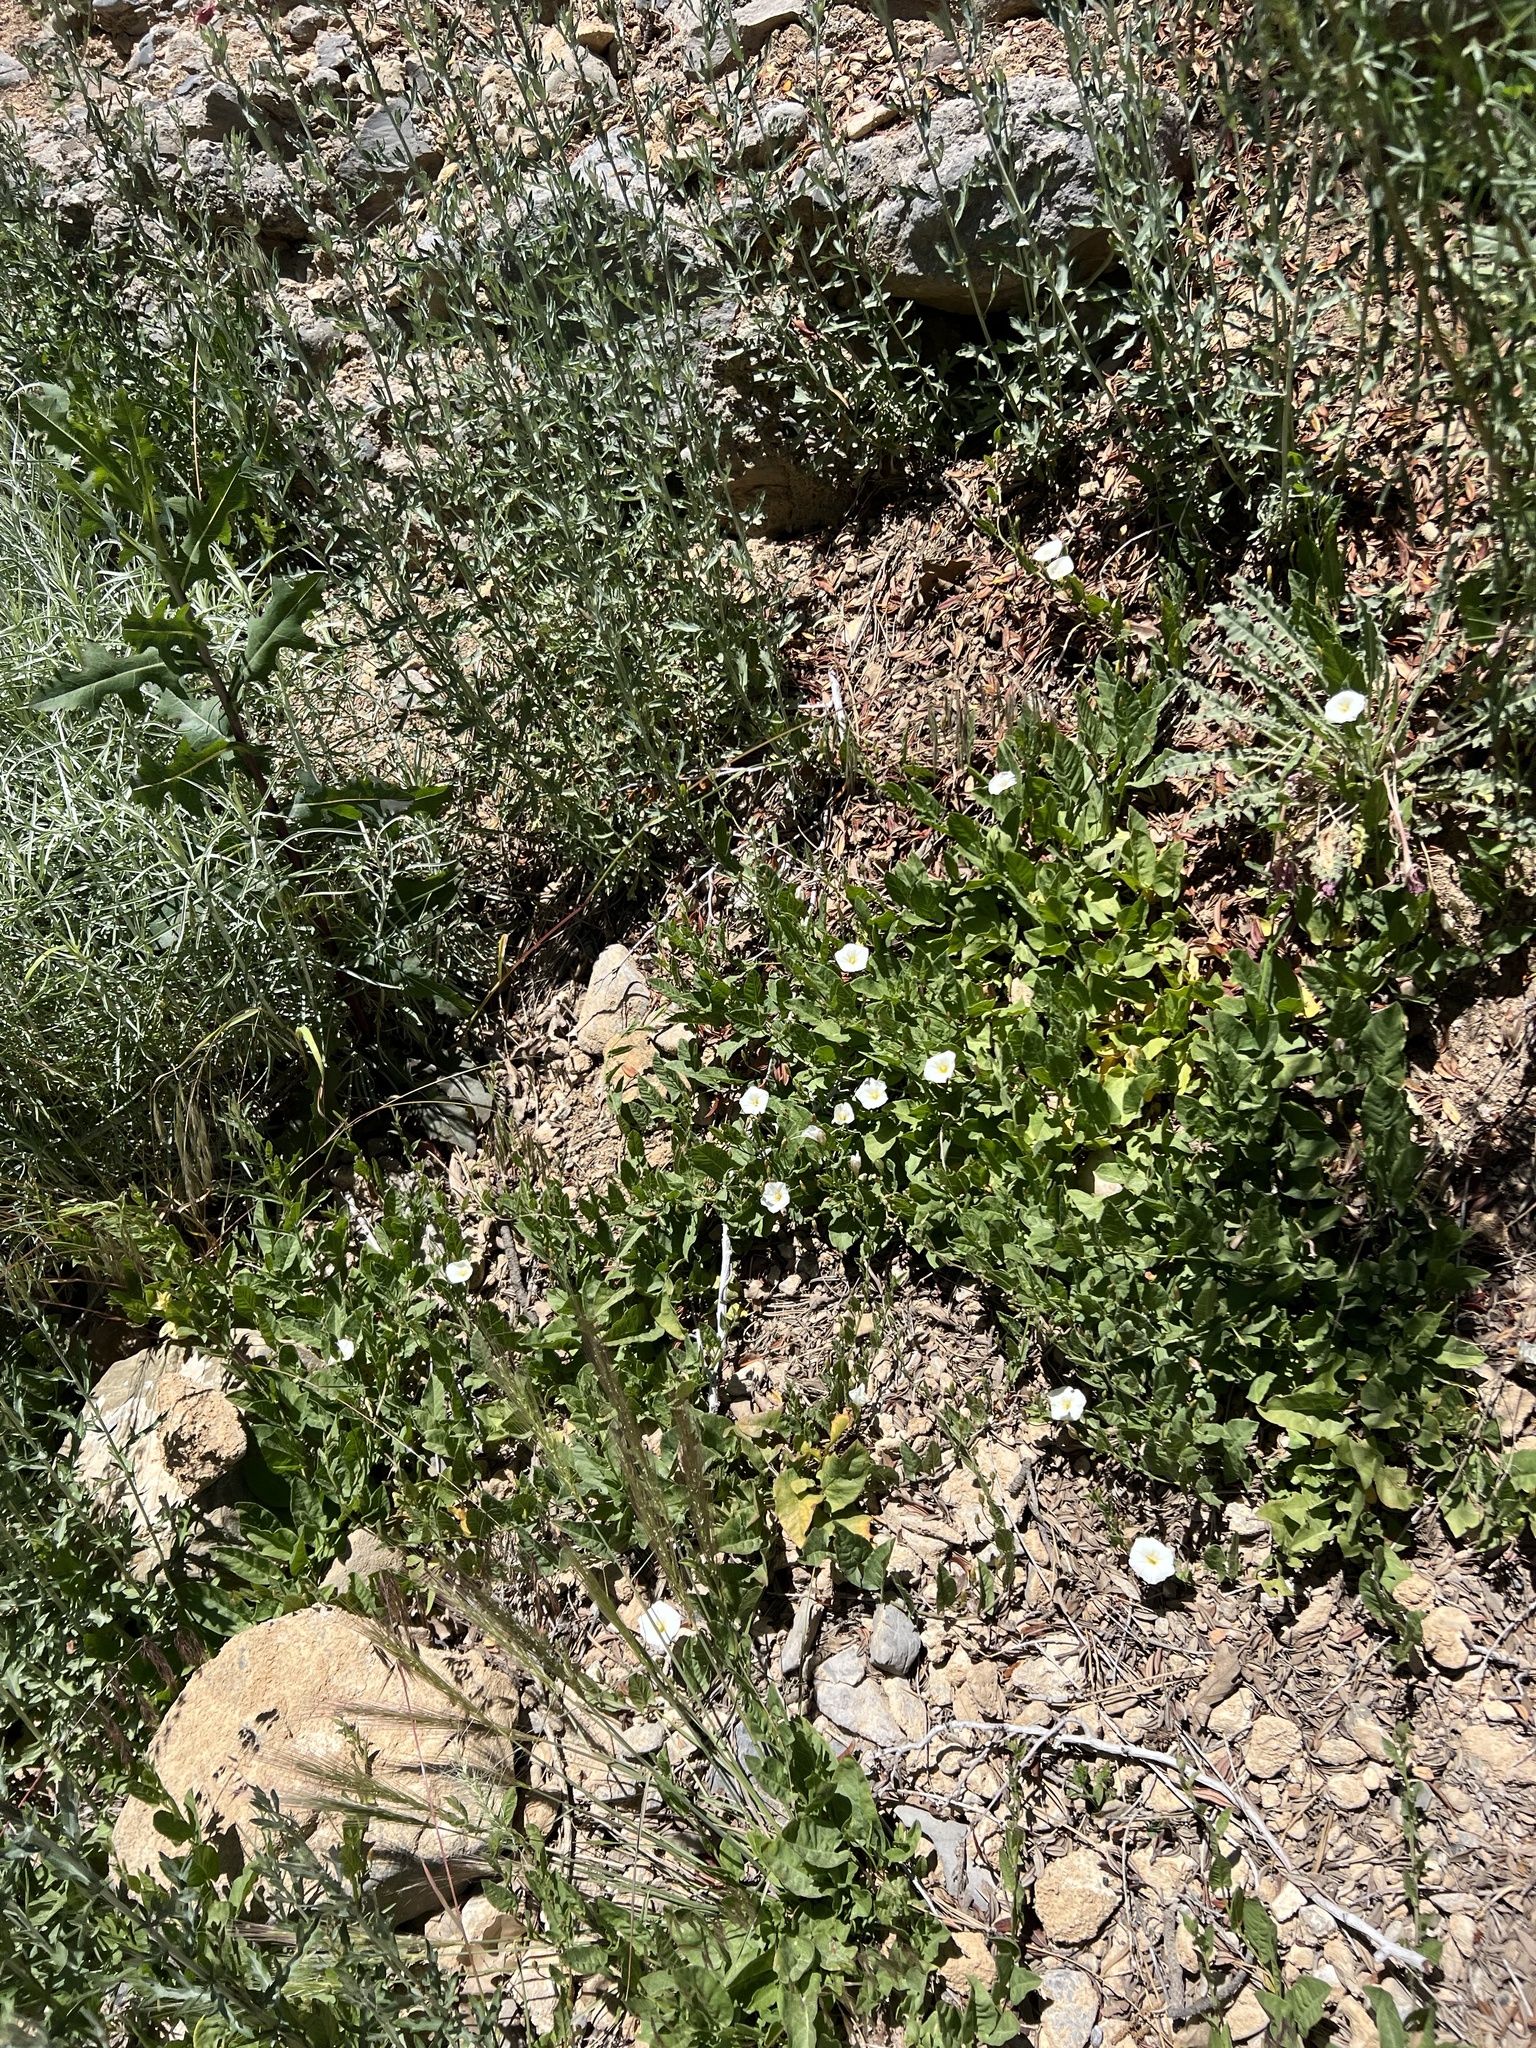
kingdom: Plantae
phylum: Tracheophyta
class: Magnoliopsida
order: Solanales
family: Convolvulaceae
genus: Convolvulus
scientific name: Convolvulus arvensis
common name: Field bindweed
